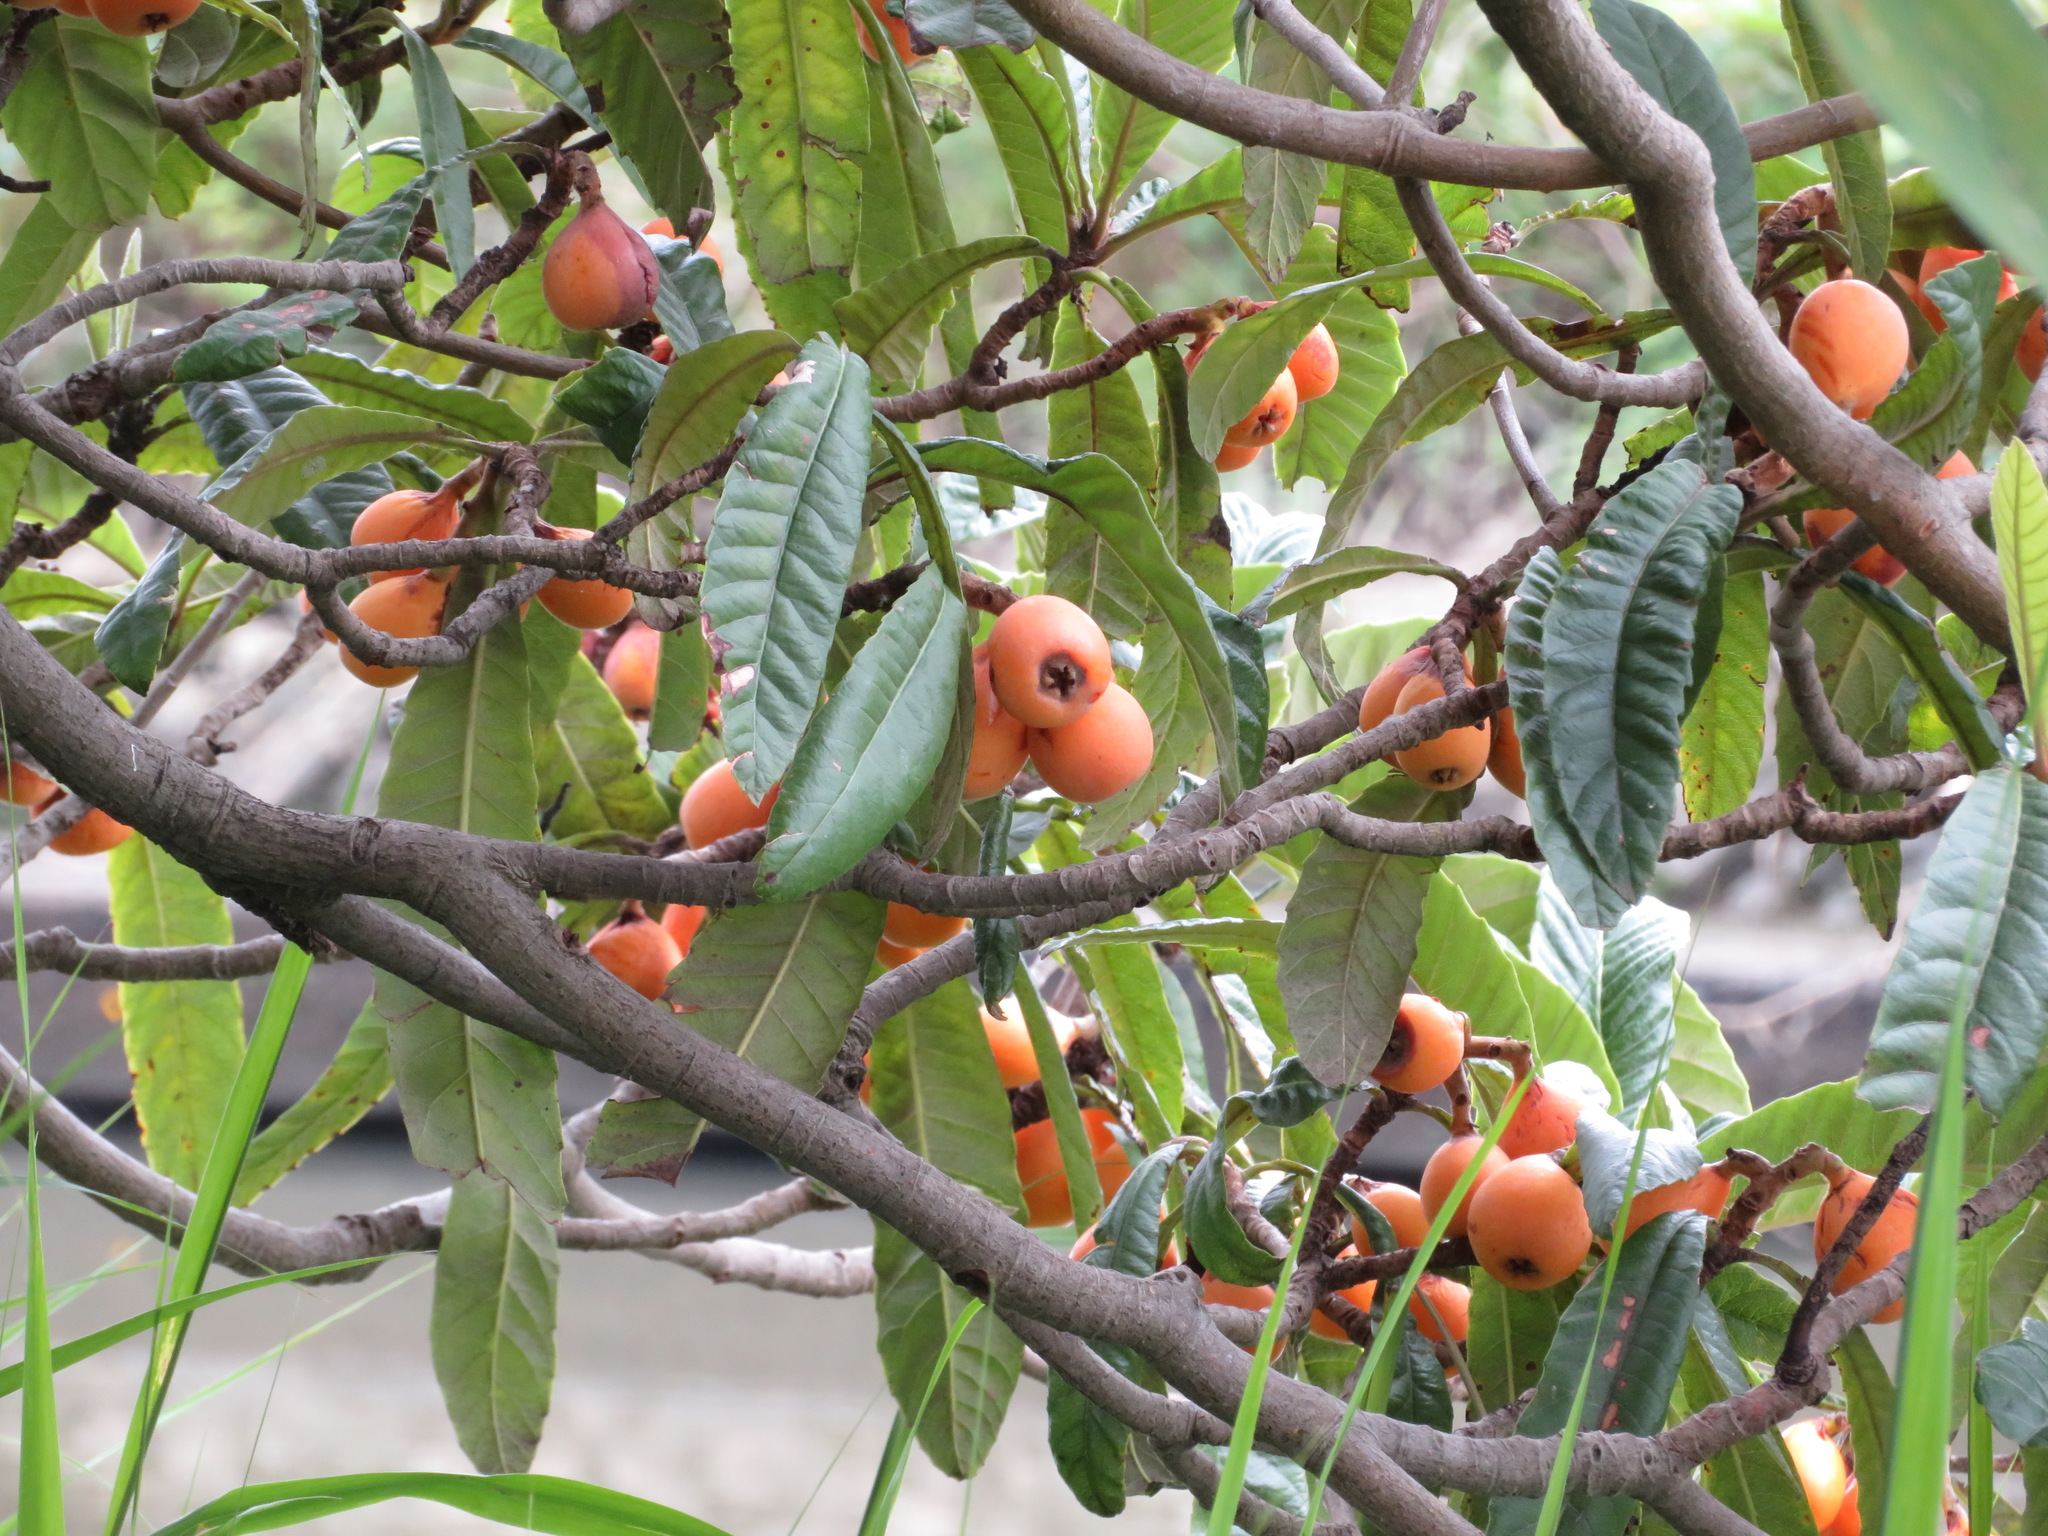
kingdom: Plantae
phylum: Tracheophyta
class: Magnoliopsida
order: Rosales
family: Rosaceae
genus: Rhaphiolepis
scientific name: Rhaphiolepis bibas
